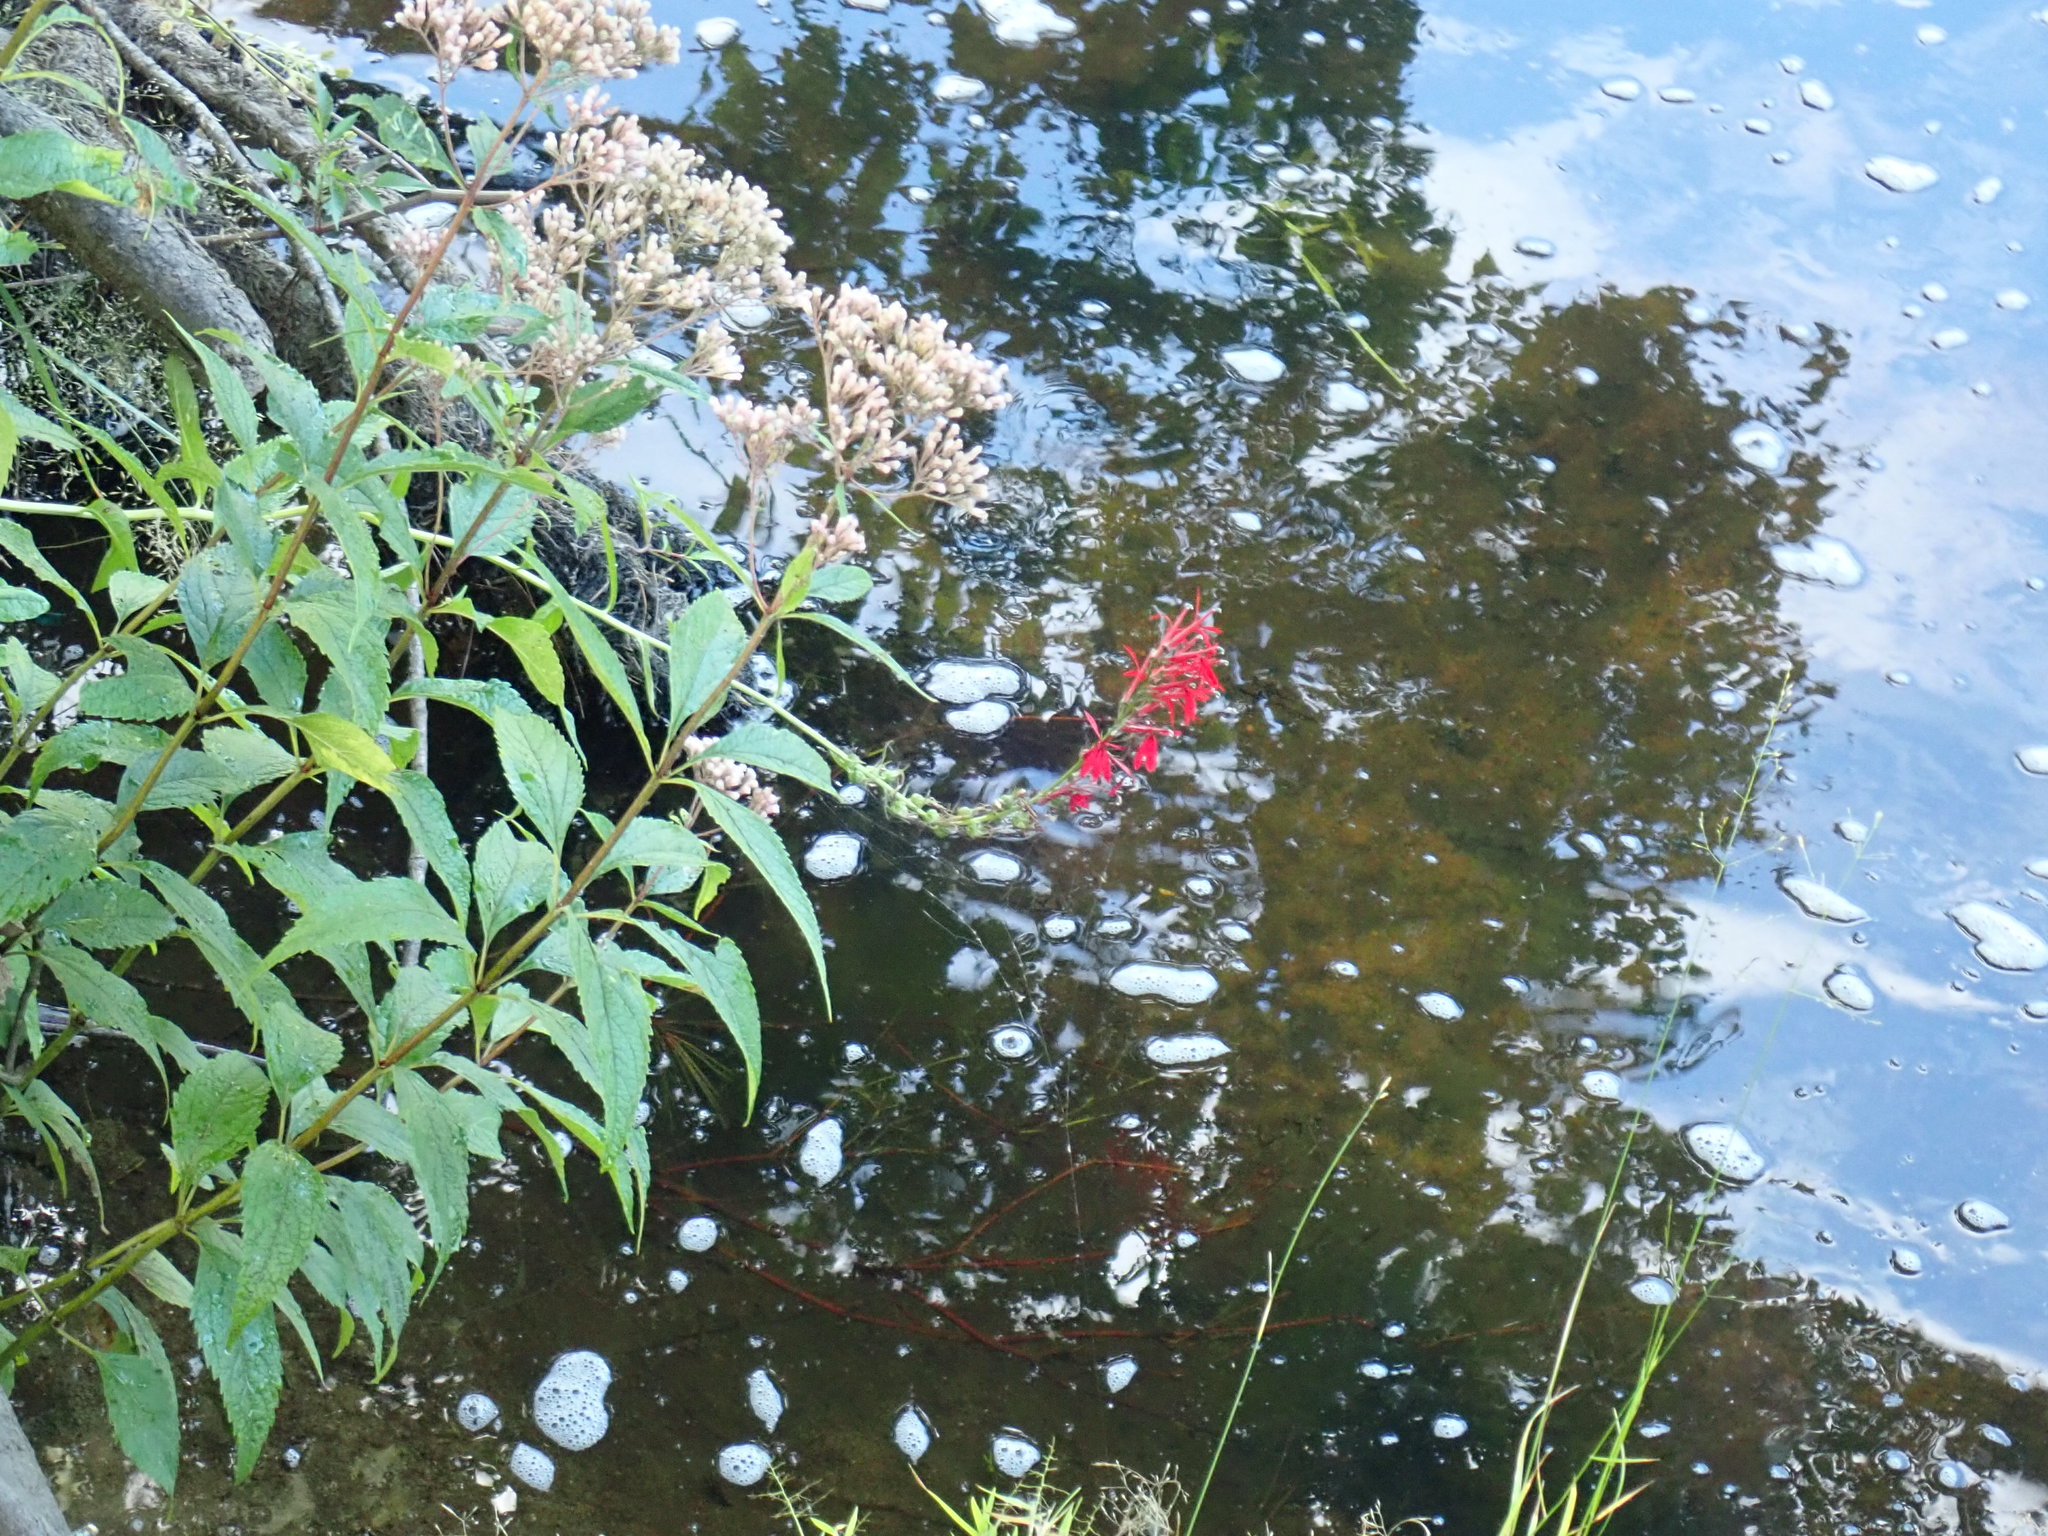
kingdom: Plantae
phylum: Tracheophyta
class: Magnoliopsida
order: Asterales
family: Campanulaceae
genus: Lobelia
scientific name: Lobelia cardinalis
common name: Cardinal flower
